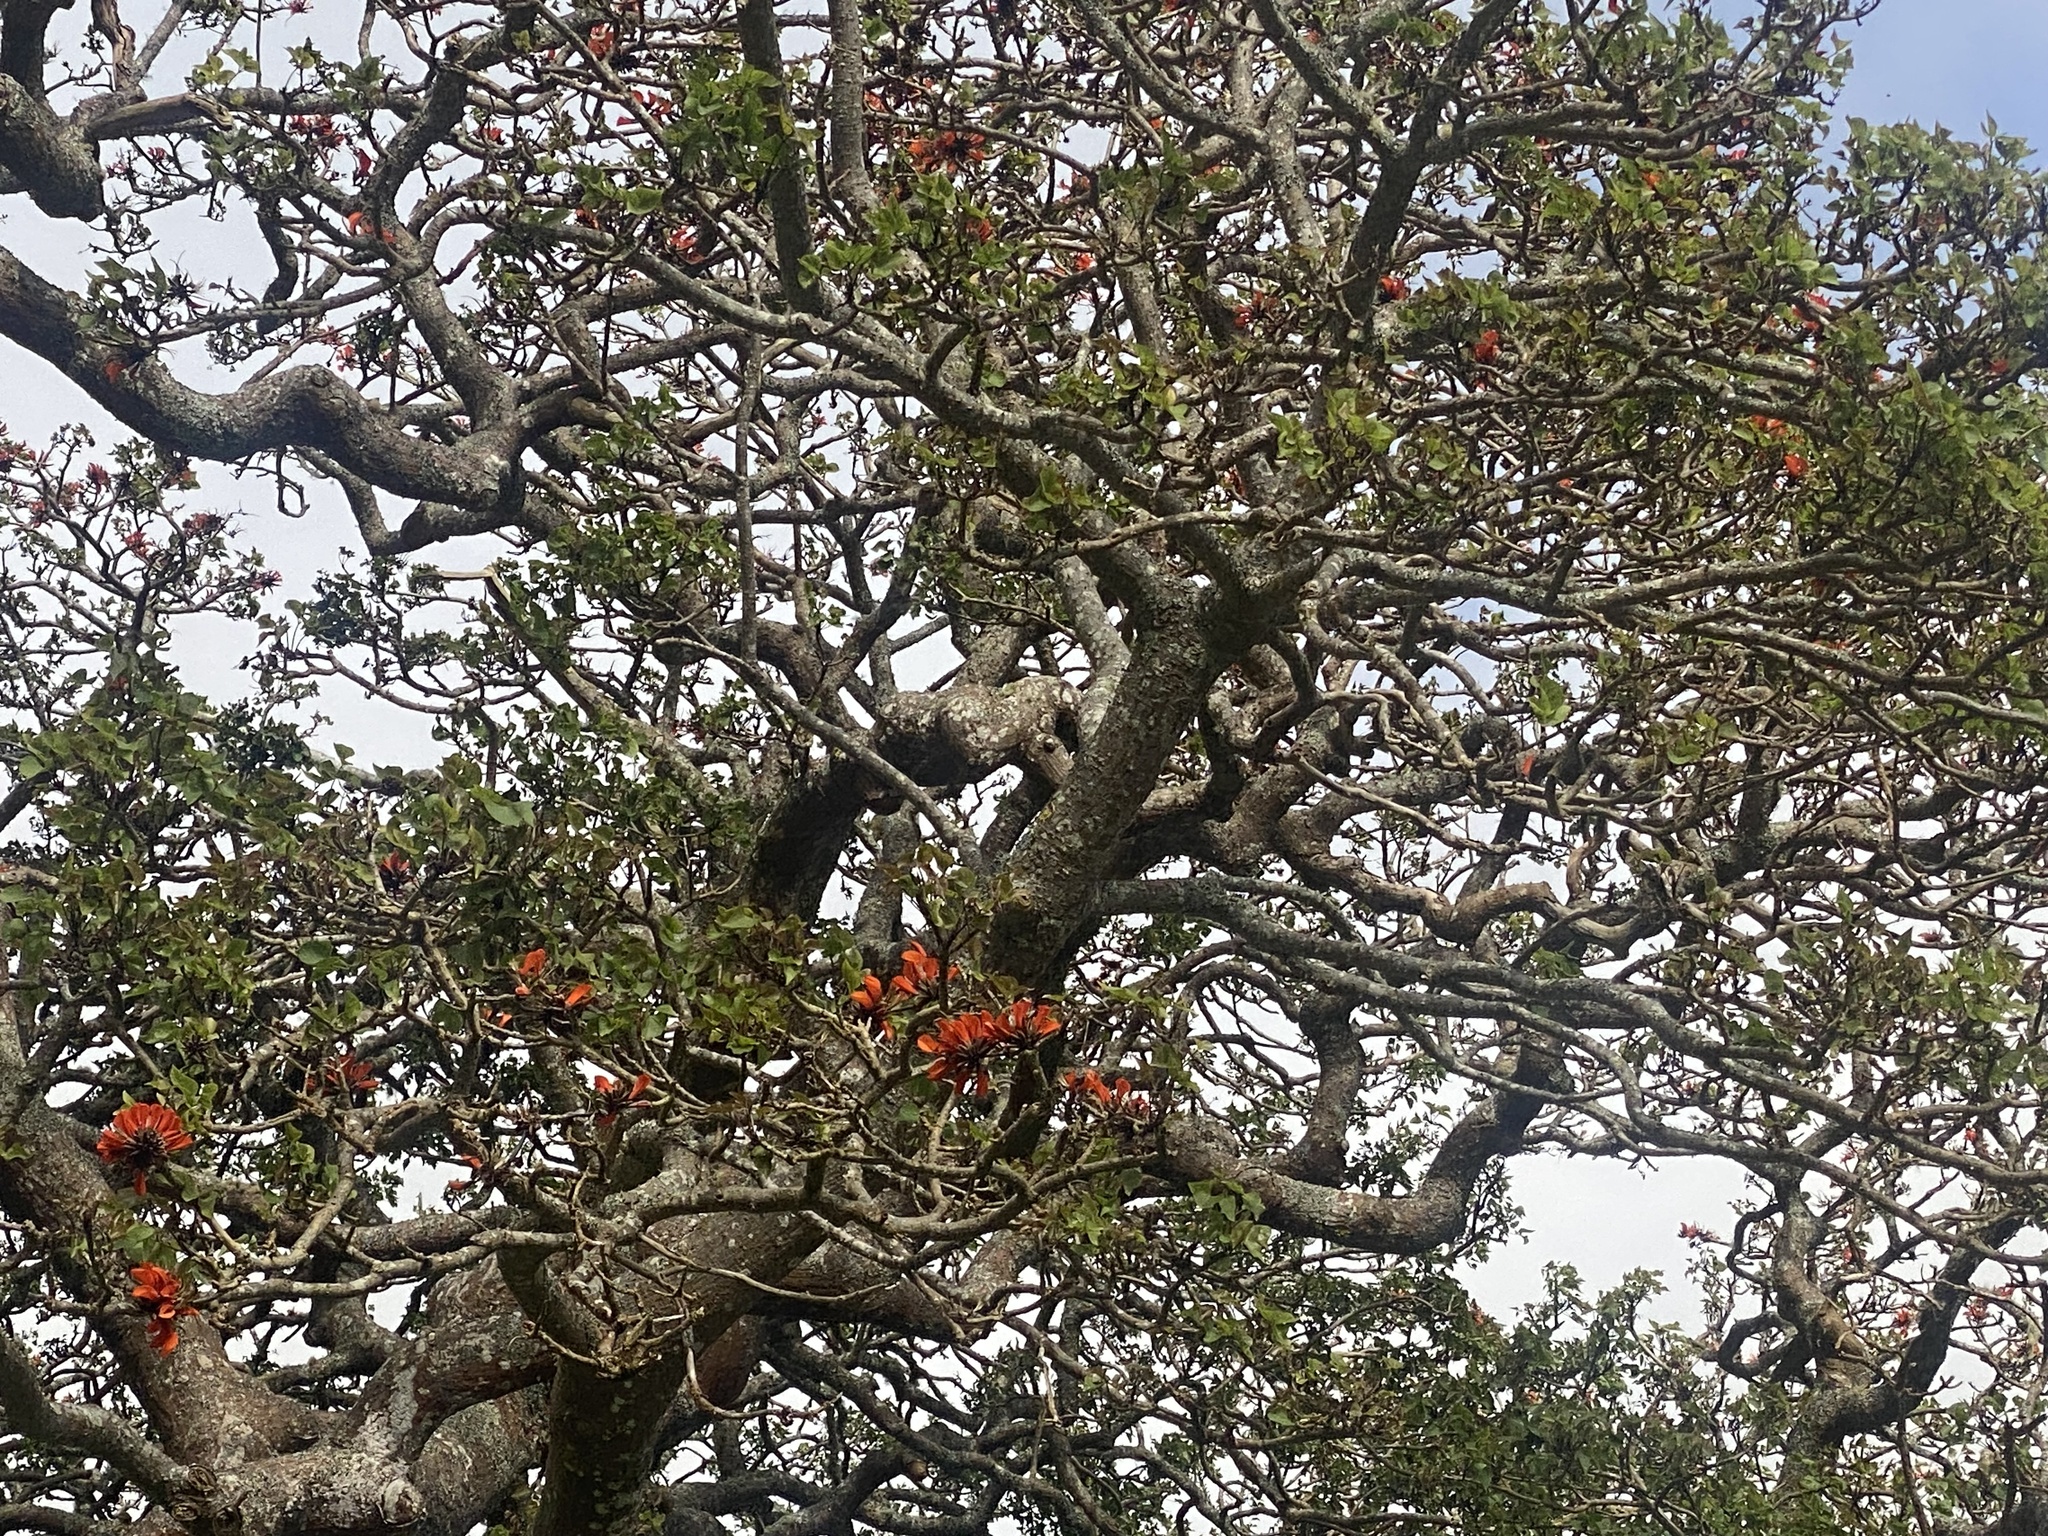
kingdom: Plantae
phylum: Tracheophyta
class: Magnoliopsida
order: Fabales
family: Fabaceae
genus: Erythrina
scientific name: Erythrina caffra
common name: Coast coral tree
